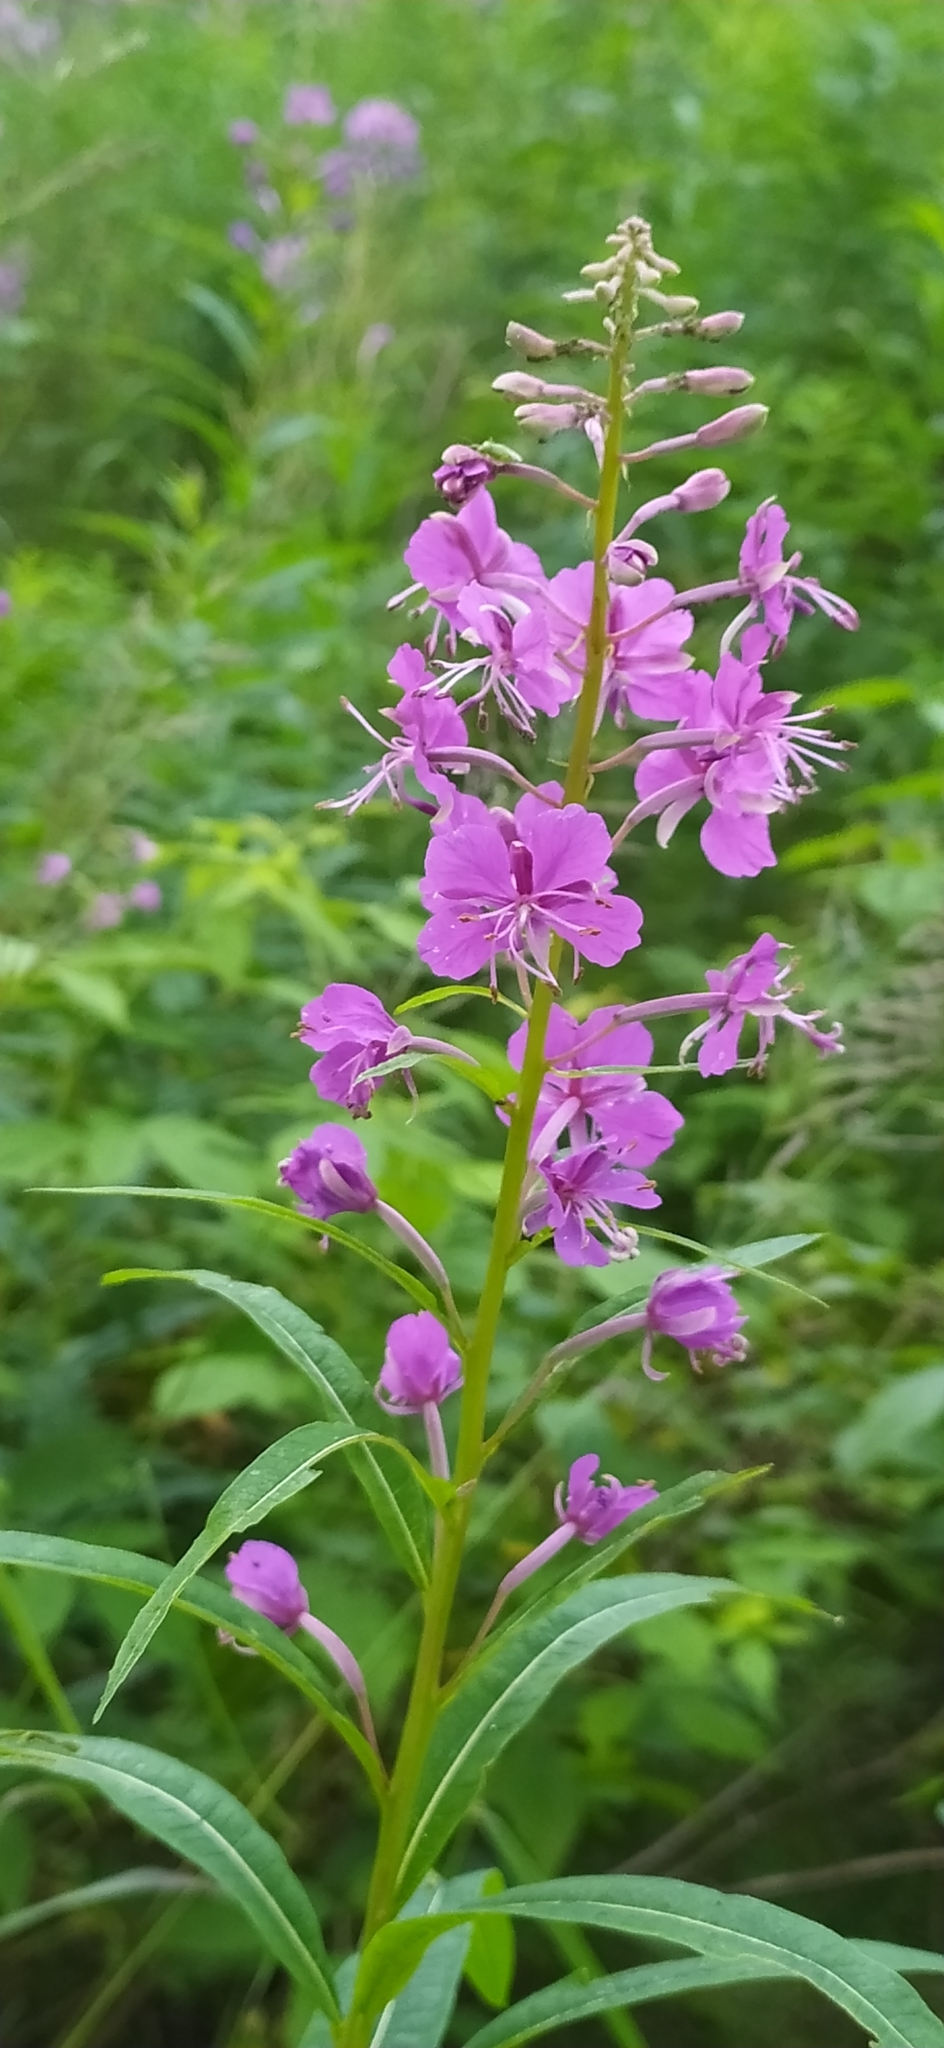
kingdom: Plantae
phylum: Tracheophyta
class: Magnoliopsida
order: Myrtales
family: Onagraceae
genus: Chamaenerion
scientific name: Chamaenerion angustifolium
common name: Fireweed
